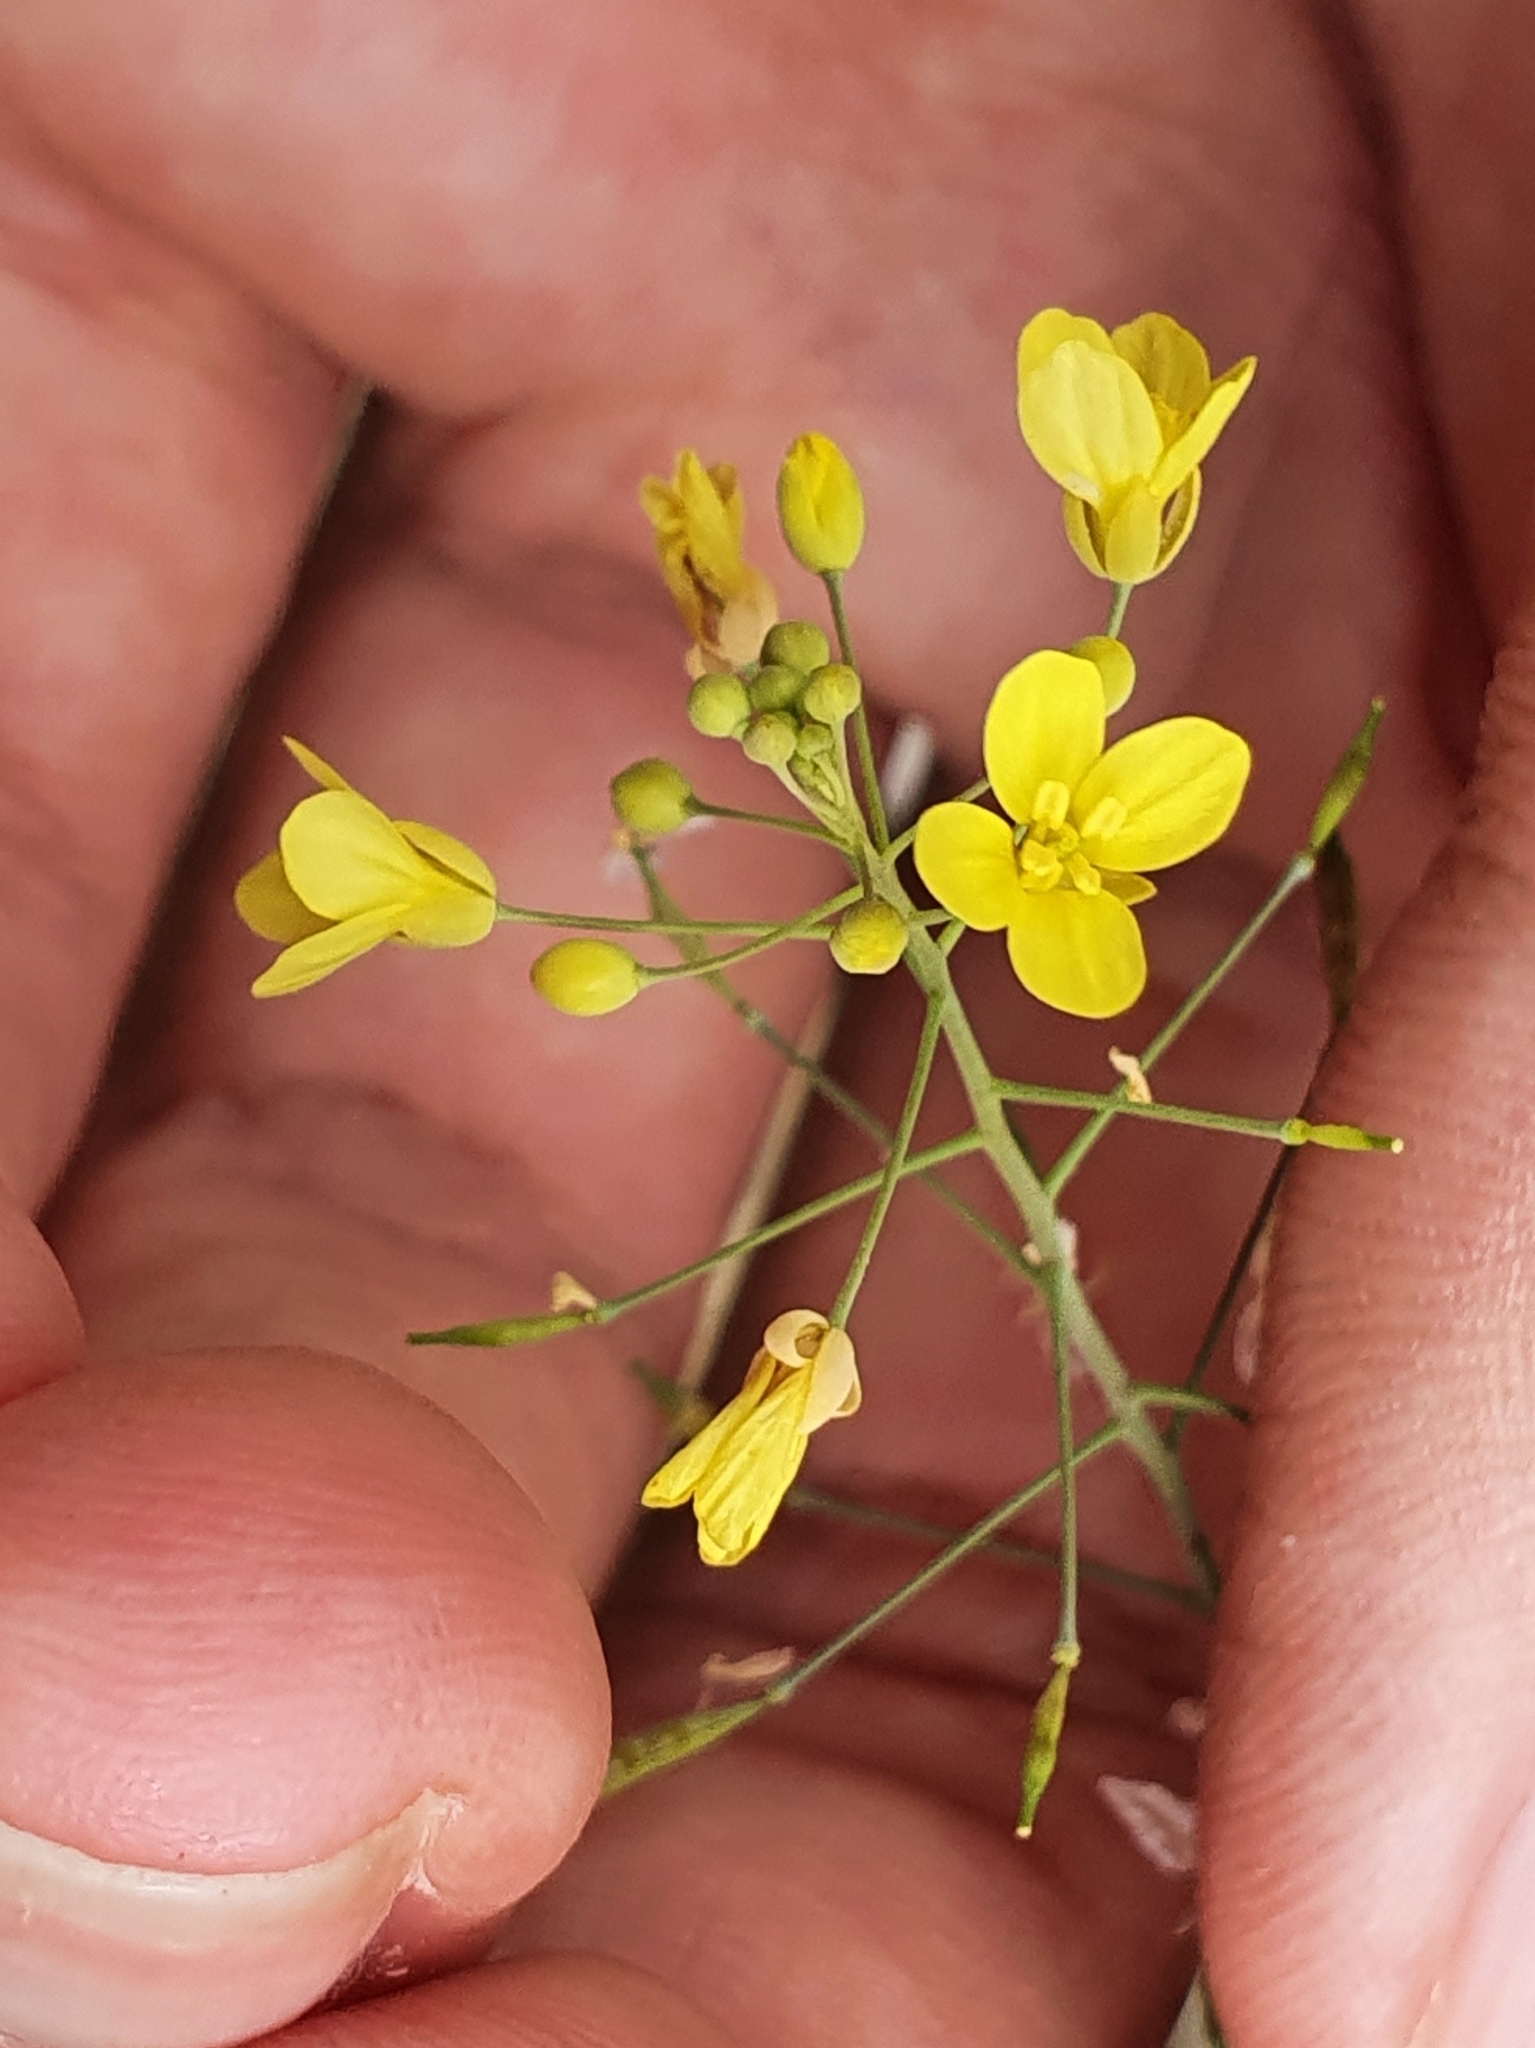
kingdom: Plantae
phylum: Tracheophyta
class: Magnoliopsida
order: Brassicales
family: Brassicaceae
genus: Brassica
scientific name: Brassica souliei
